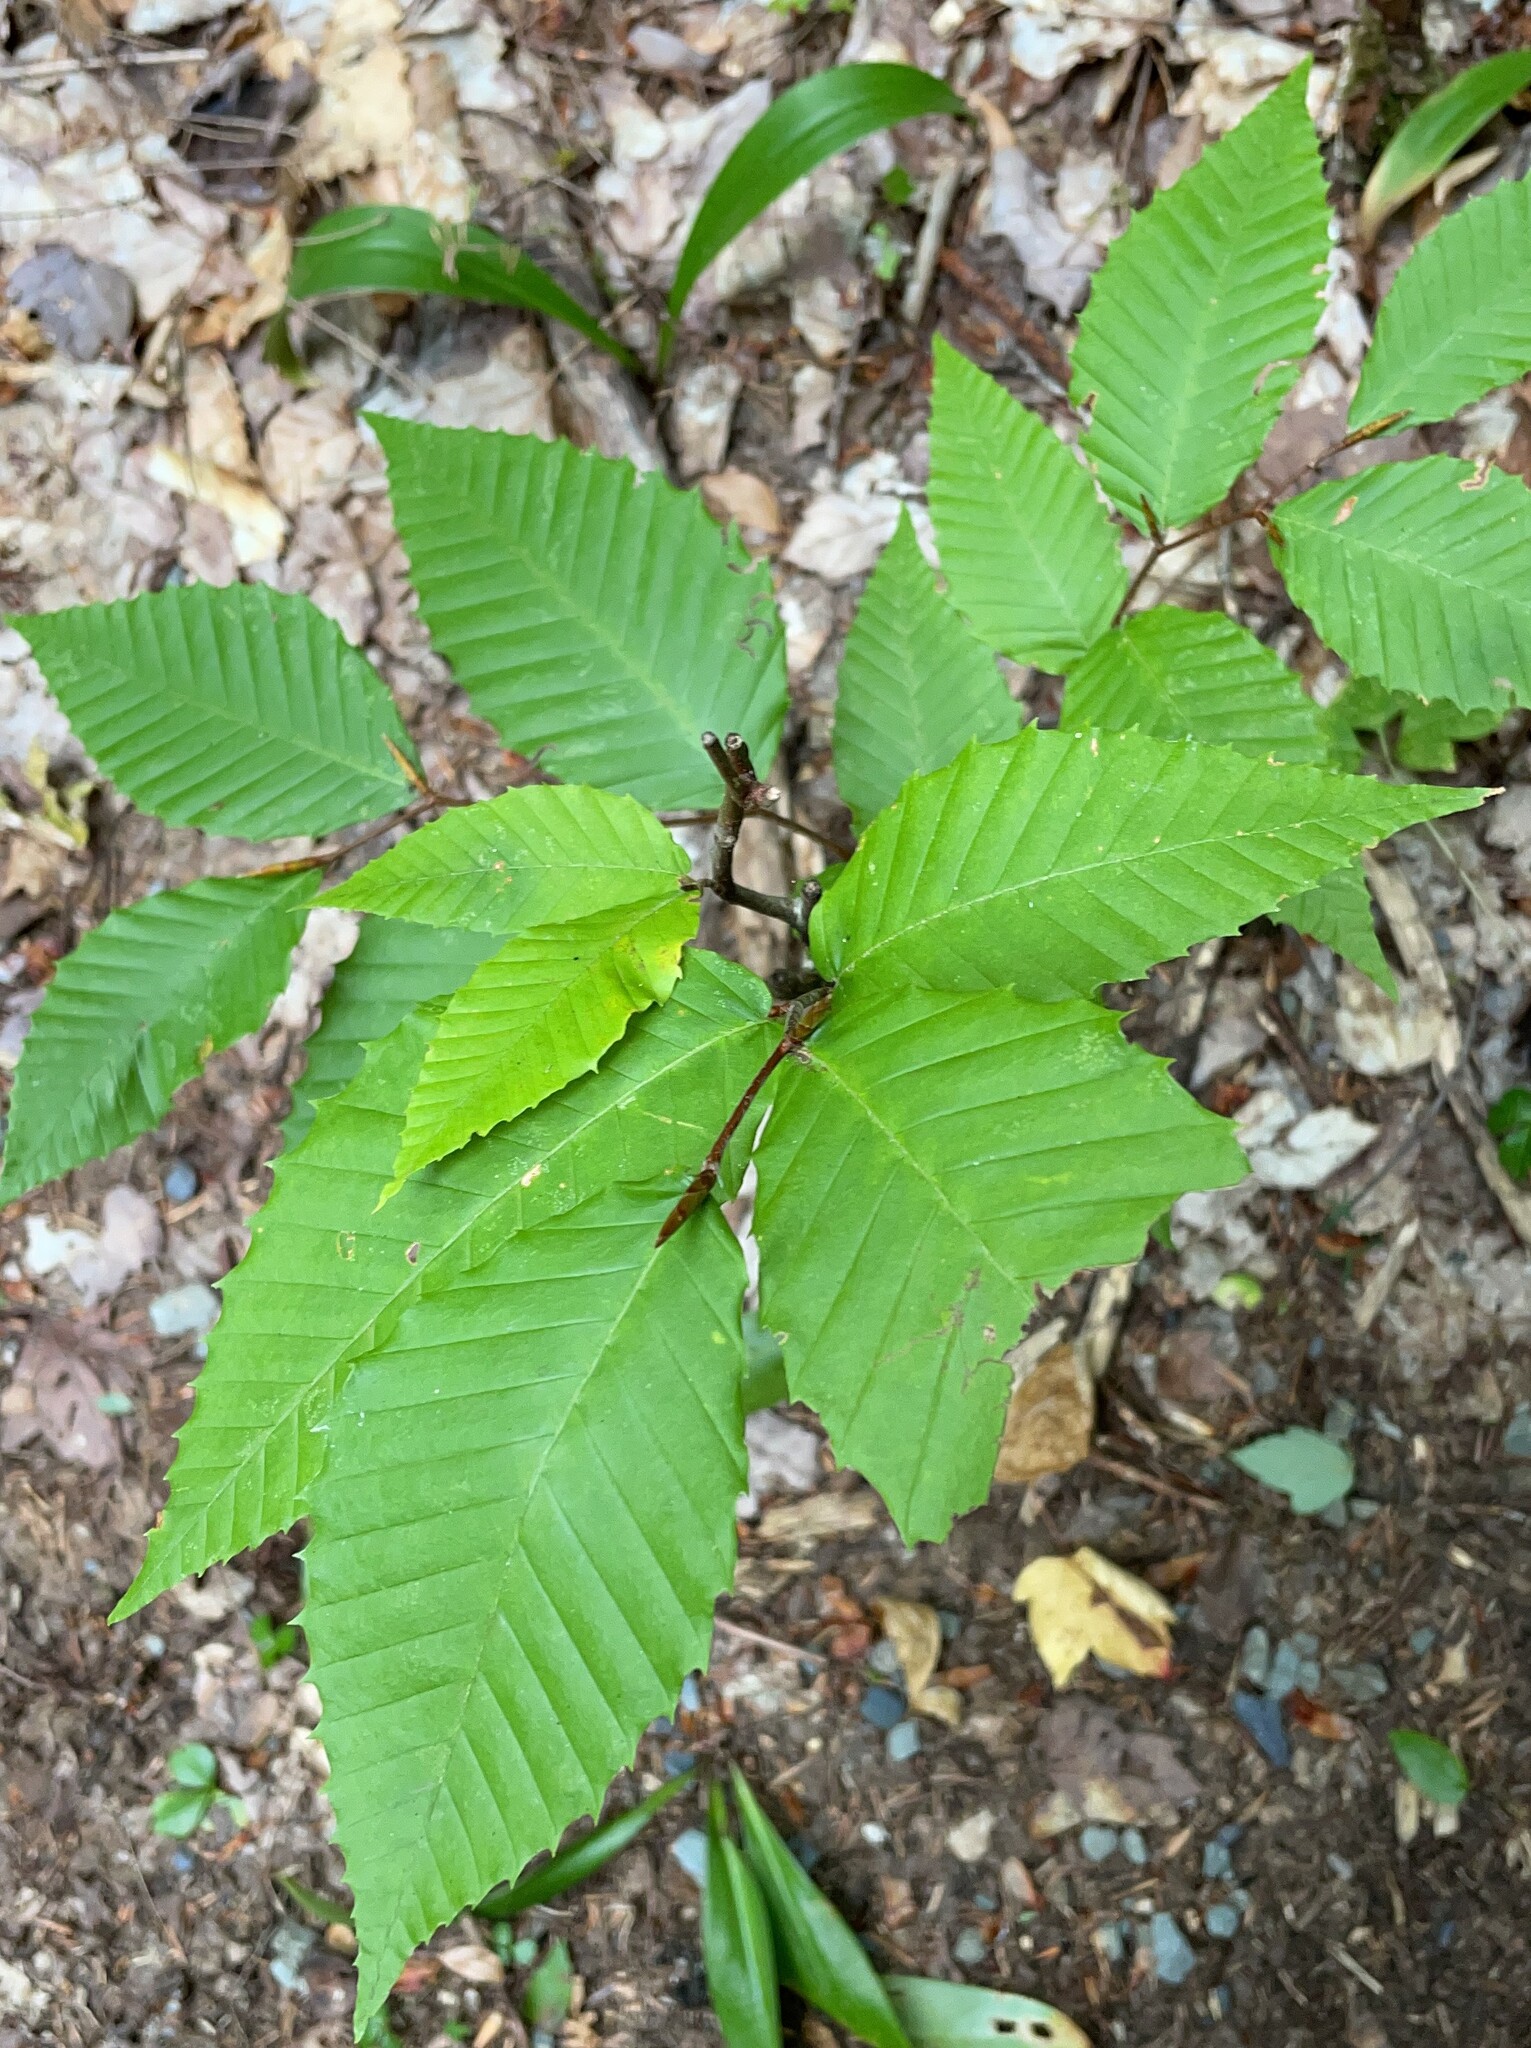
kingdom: Plantae
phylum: Tracheophyta
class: Magnoliopsida
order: Fagales
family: Fagaceae
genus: Fagus
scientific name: Fagus grandifolia
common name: American beech
